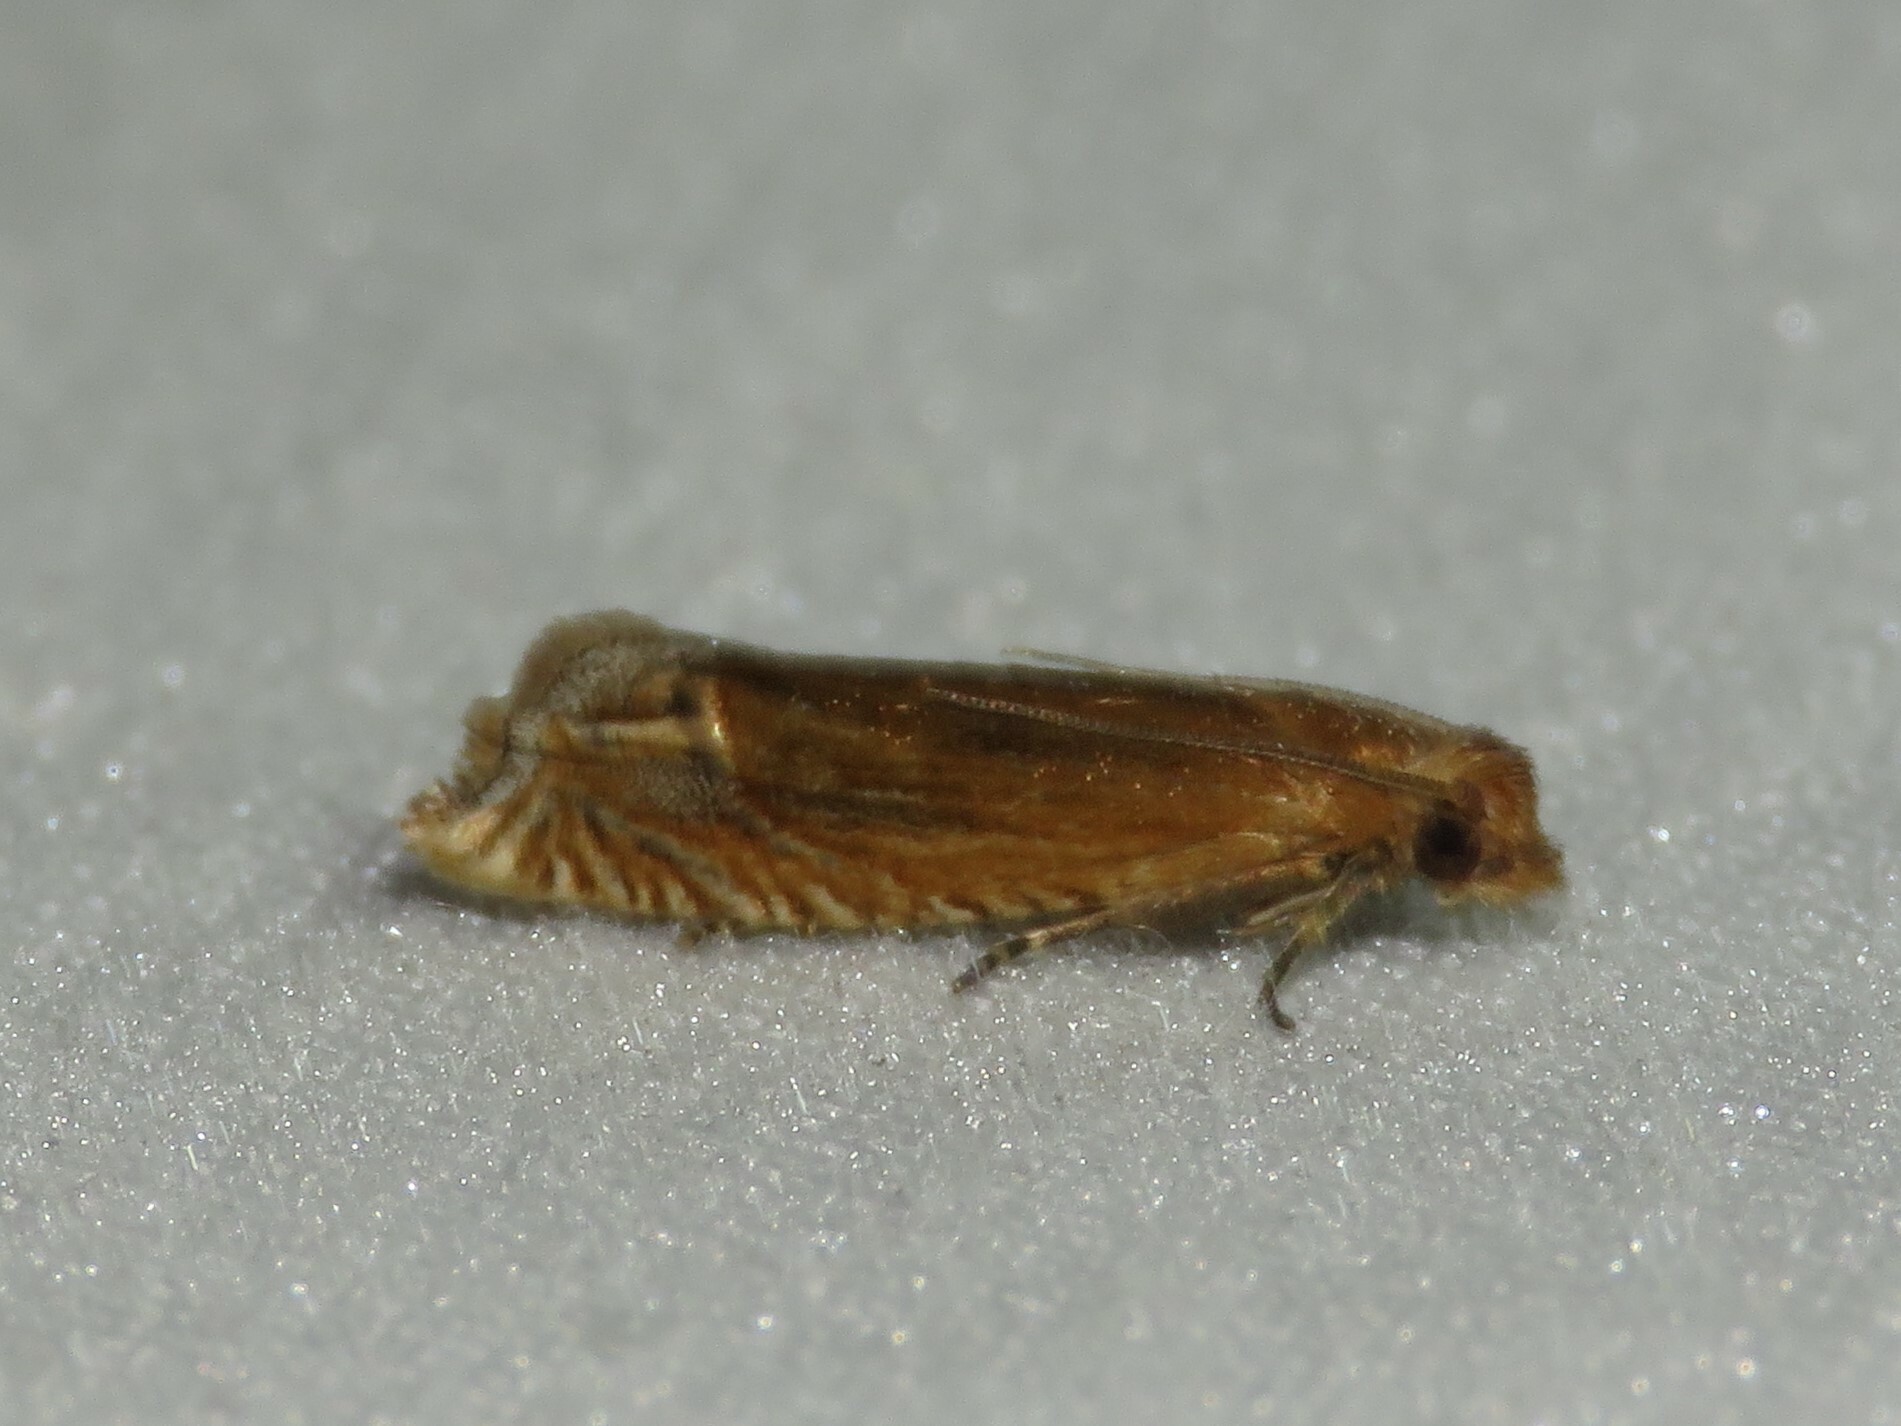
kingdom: Animalia
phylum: Arthropoda
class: Insecta
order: Lepidoptera
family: Tortricidae
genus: Pelochrista
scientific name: Pelochrista cataclystiana
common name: Goldenrod pelochrista moth
